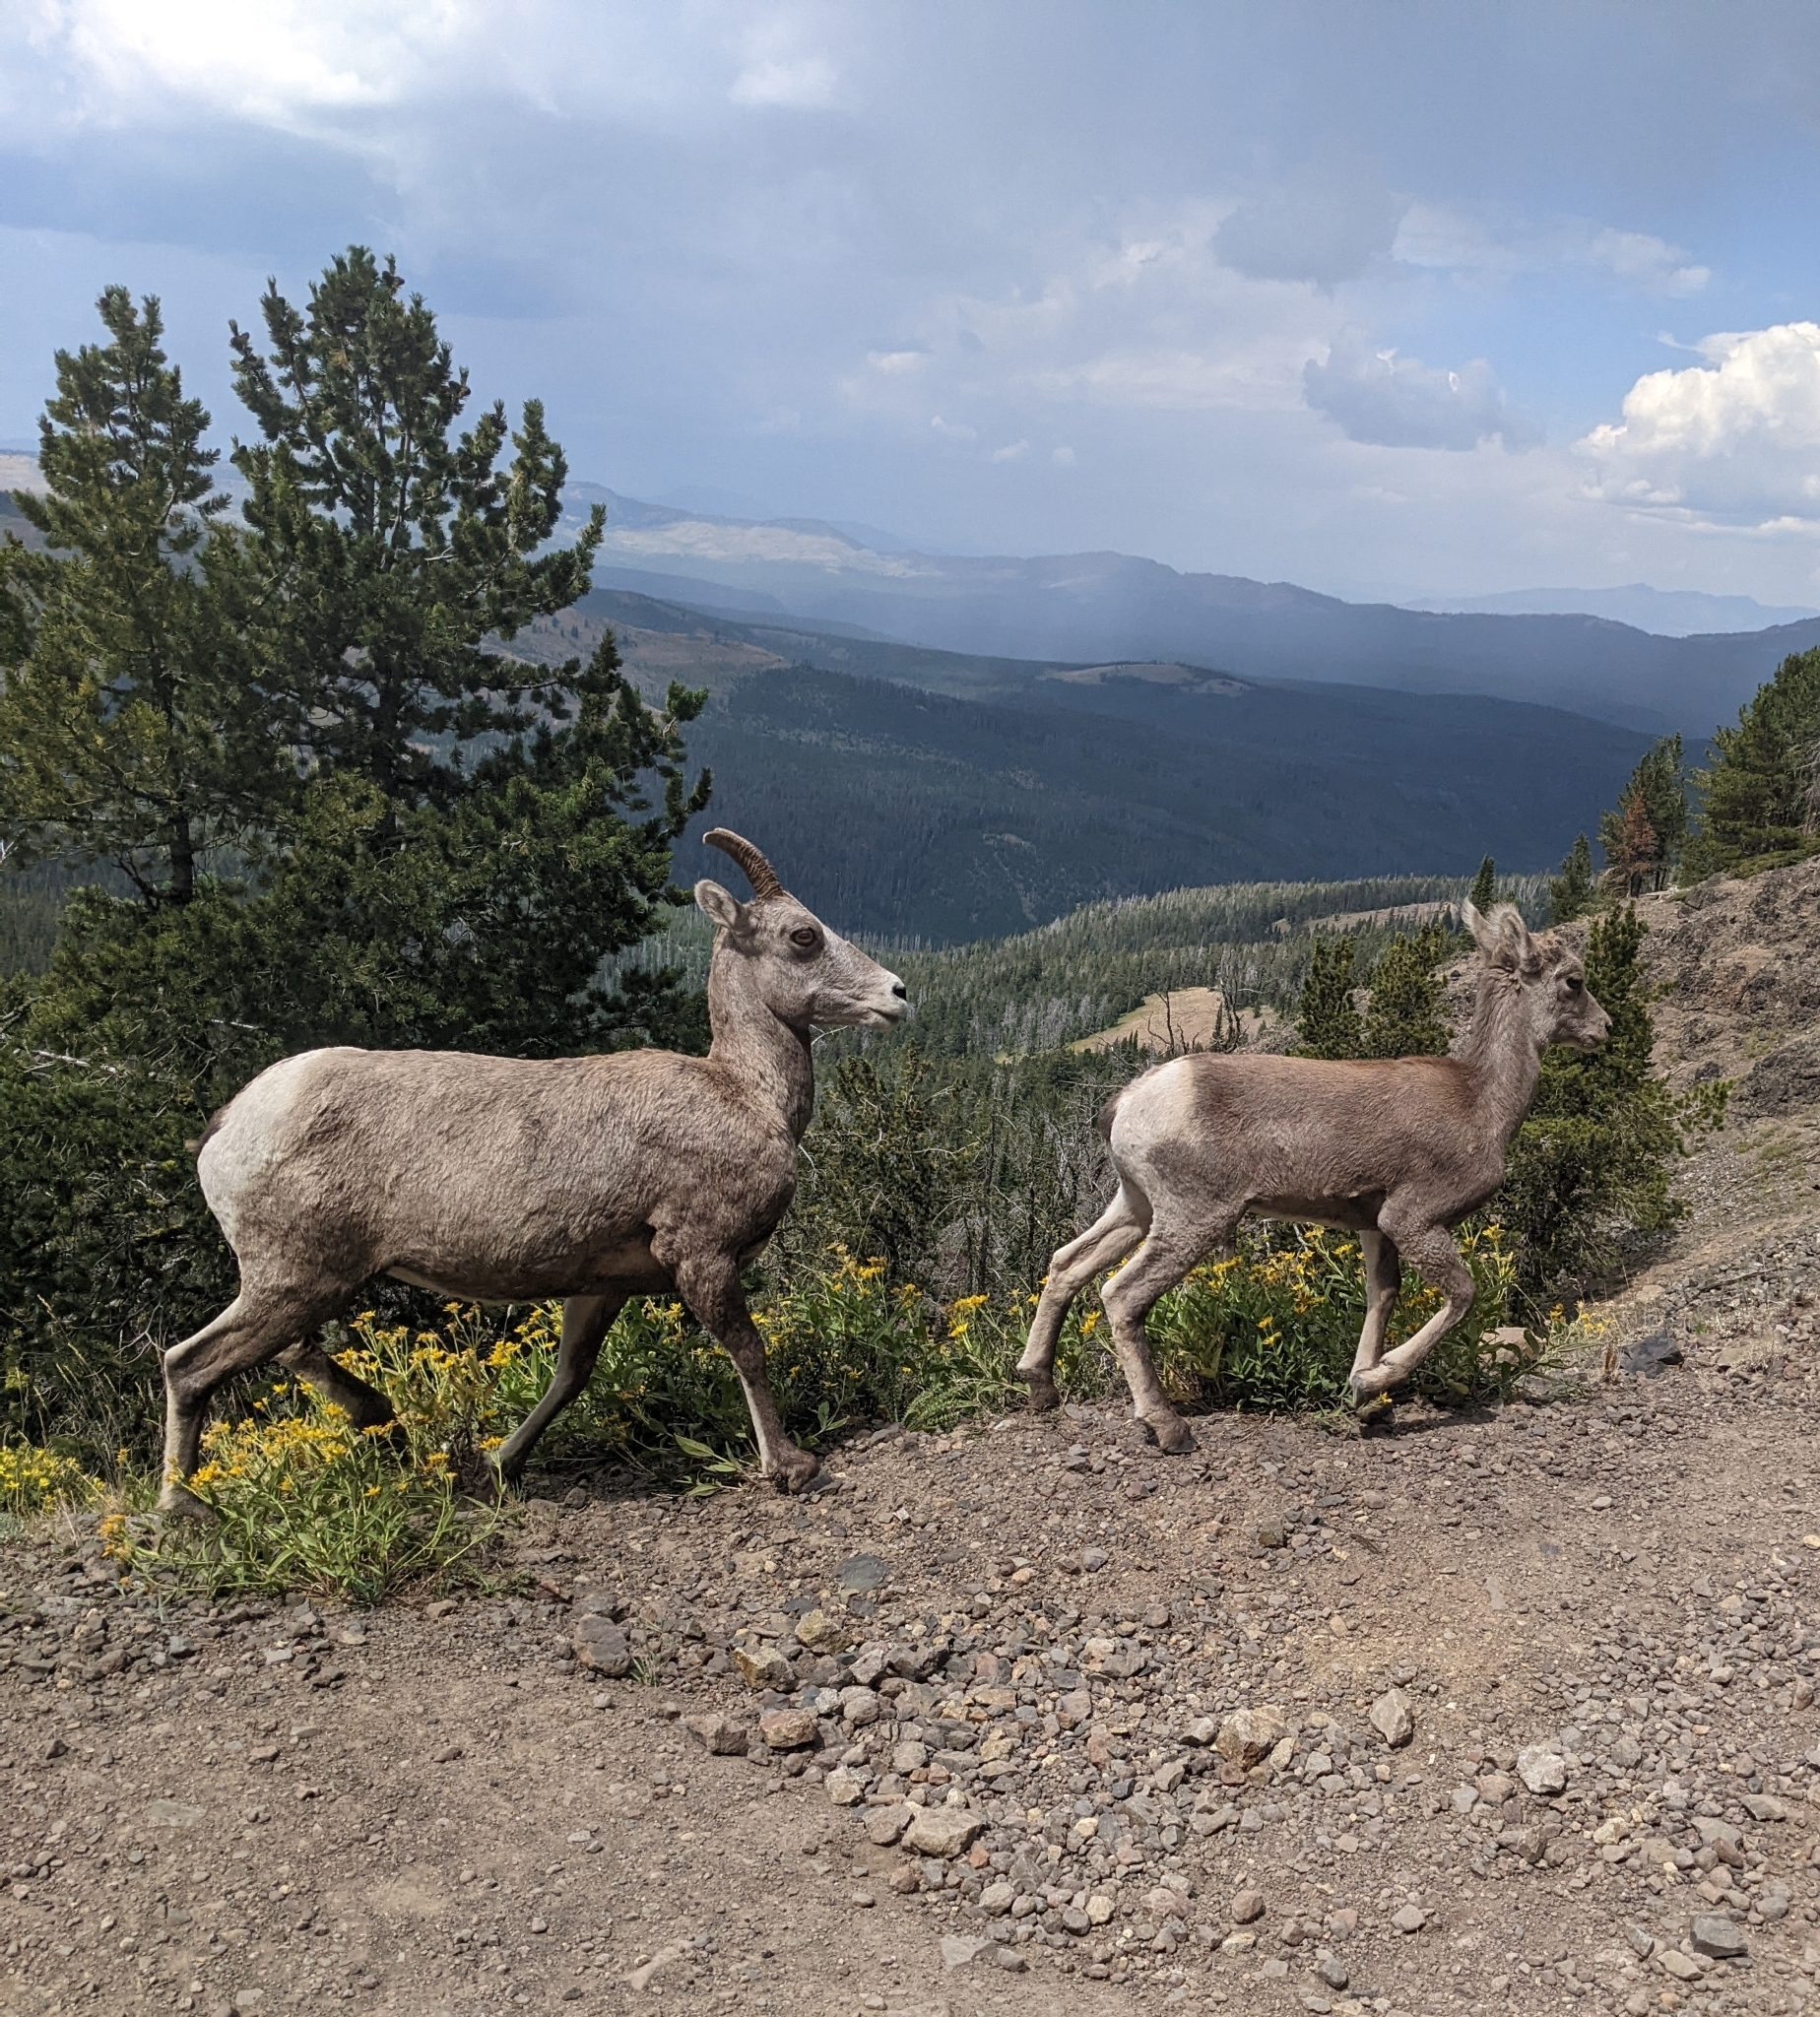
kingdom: Animalia
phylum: Chordata
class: Mammalia
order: Artiodactyla
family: Bovidae
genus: Ovis
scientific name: Ovis canadensis
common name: Bighorn sheep
